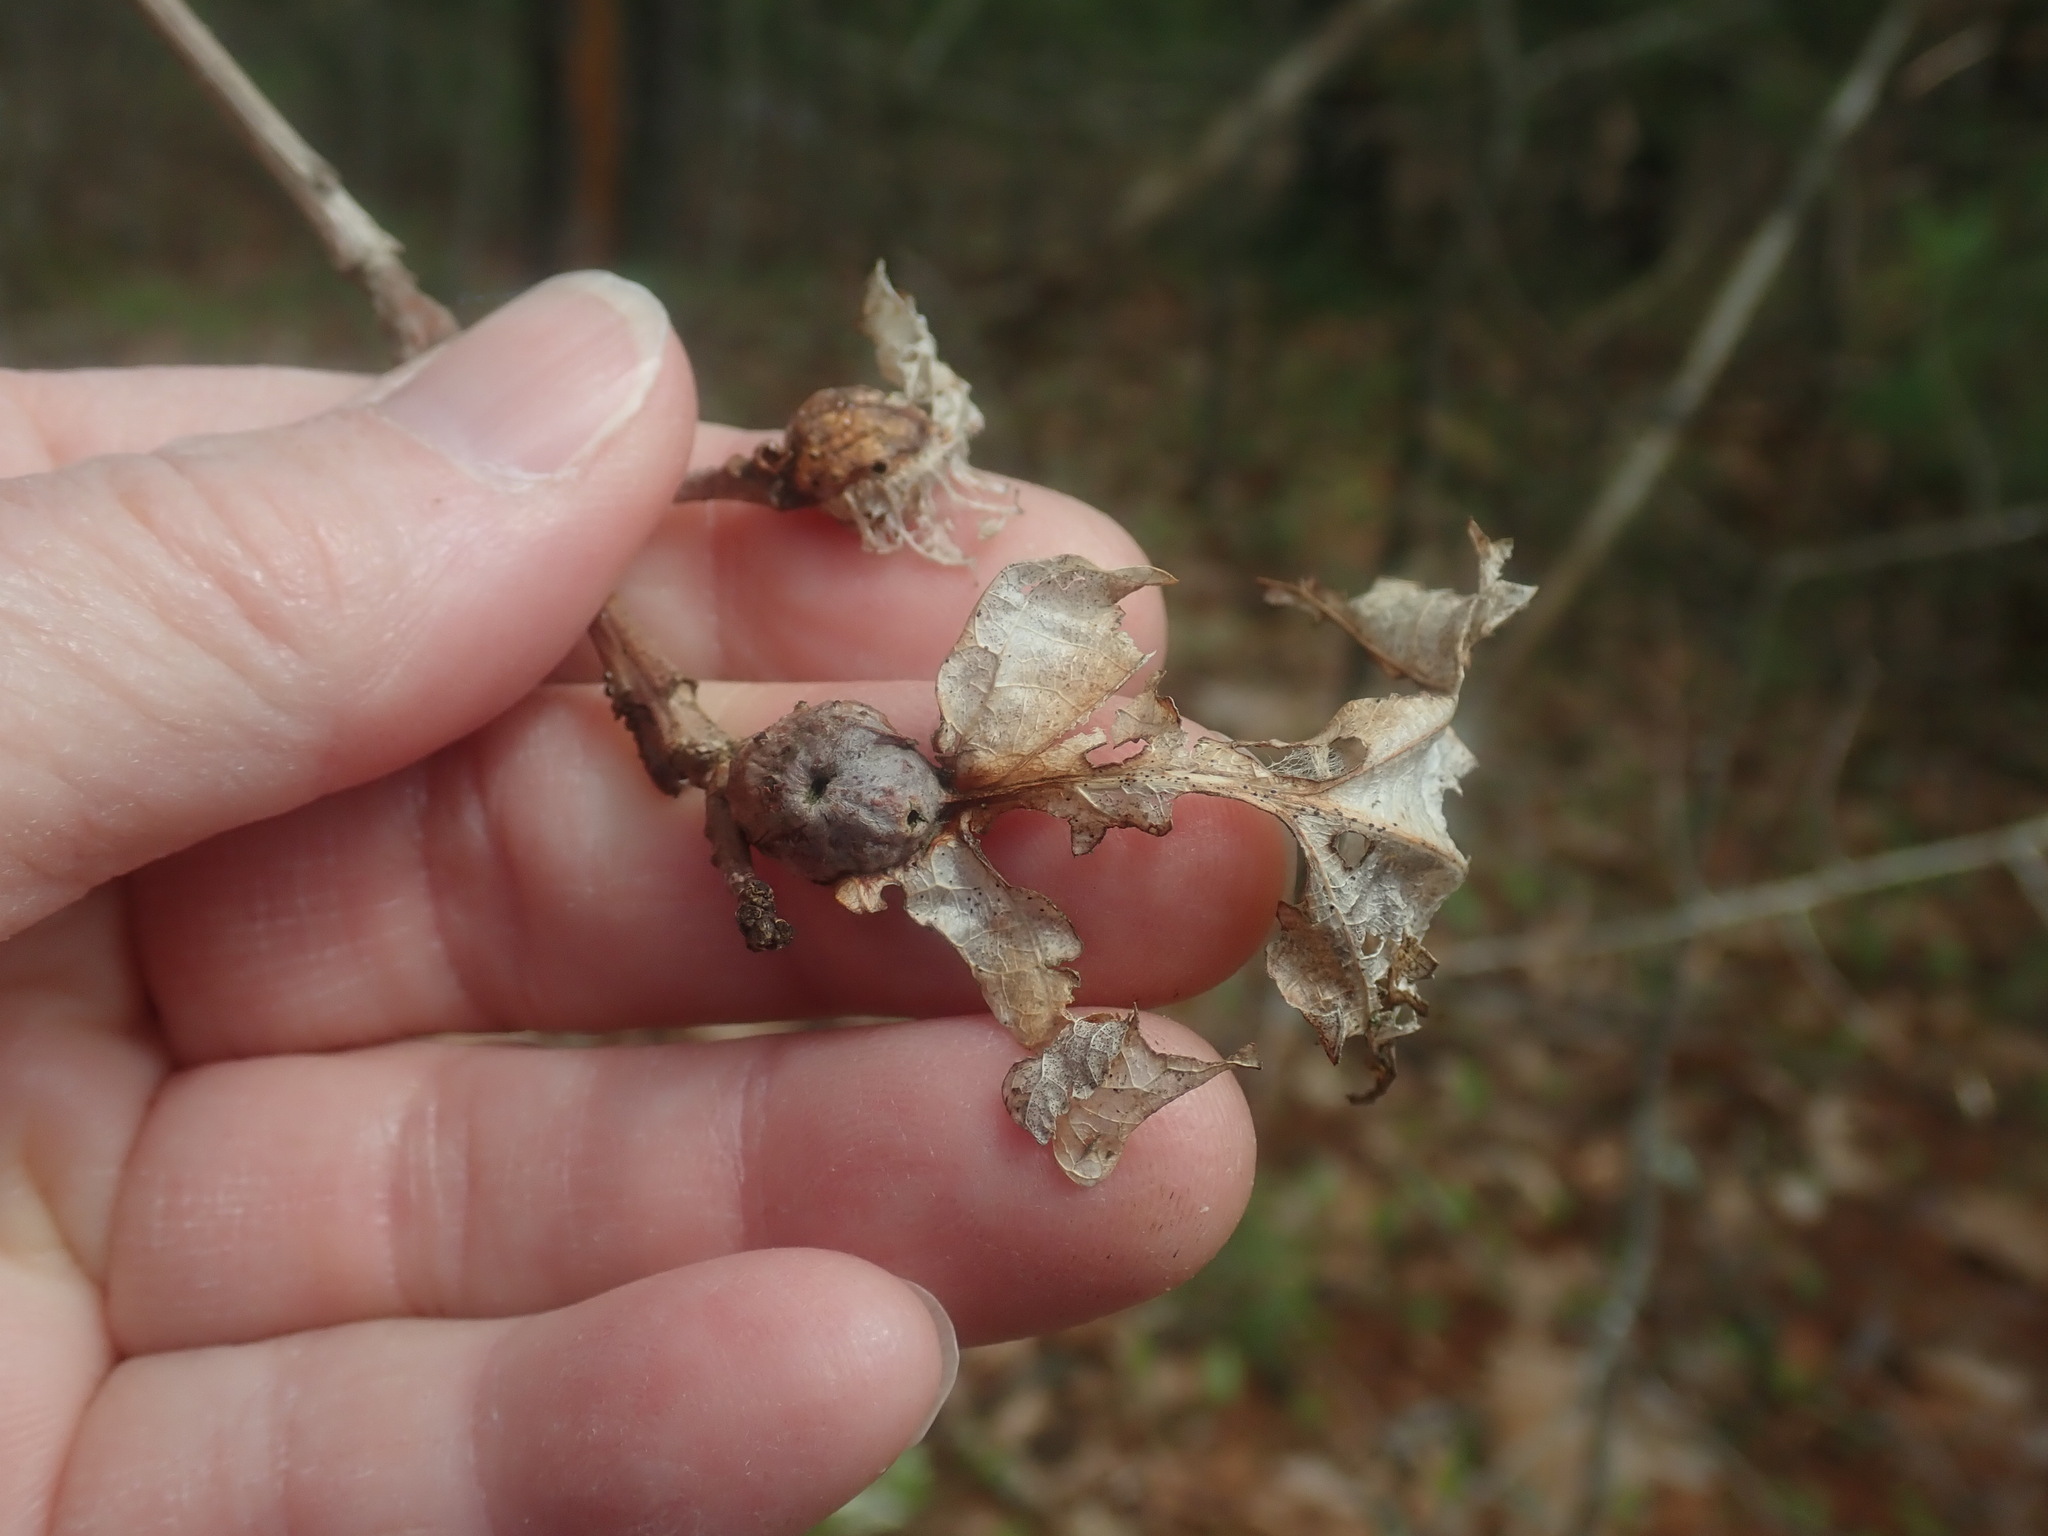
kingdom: Animalia
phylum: Arthropoda
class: Insecta
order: Hymenoptera
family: Cynipidae
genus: Andricus
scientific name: Andricus
